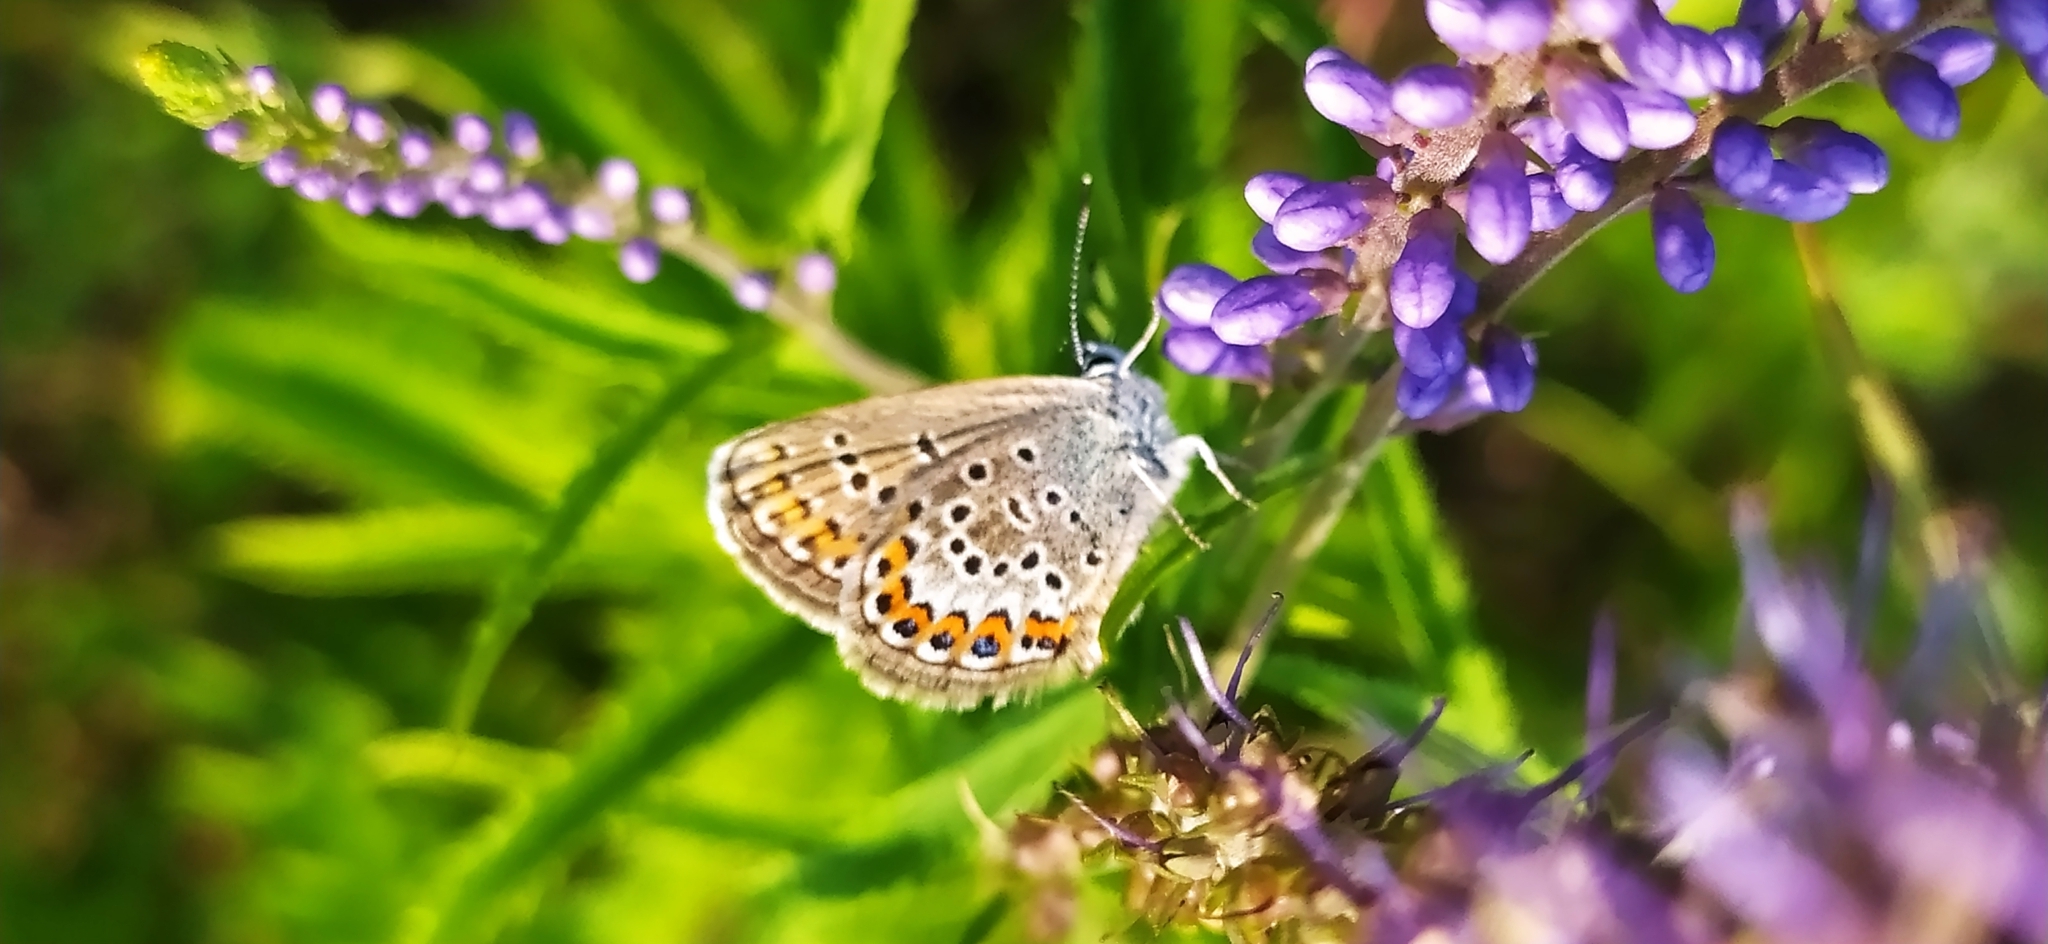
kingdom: Animalia
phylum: Arthropoda
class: Insecta
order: Lepidoptera
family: Lycaenidae
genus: Plebejus
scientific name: Plebejus argus
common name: Silver-studded blue
